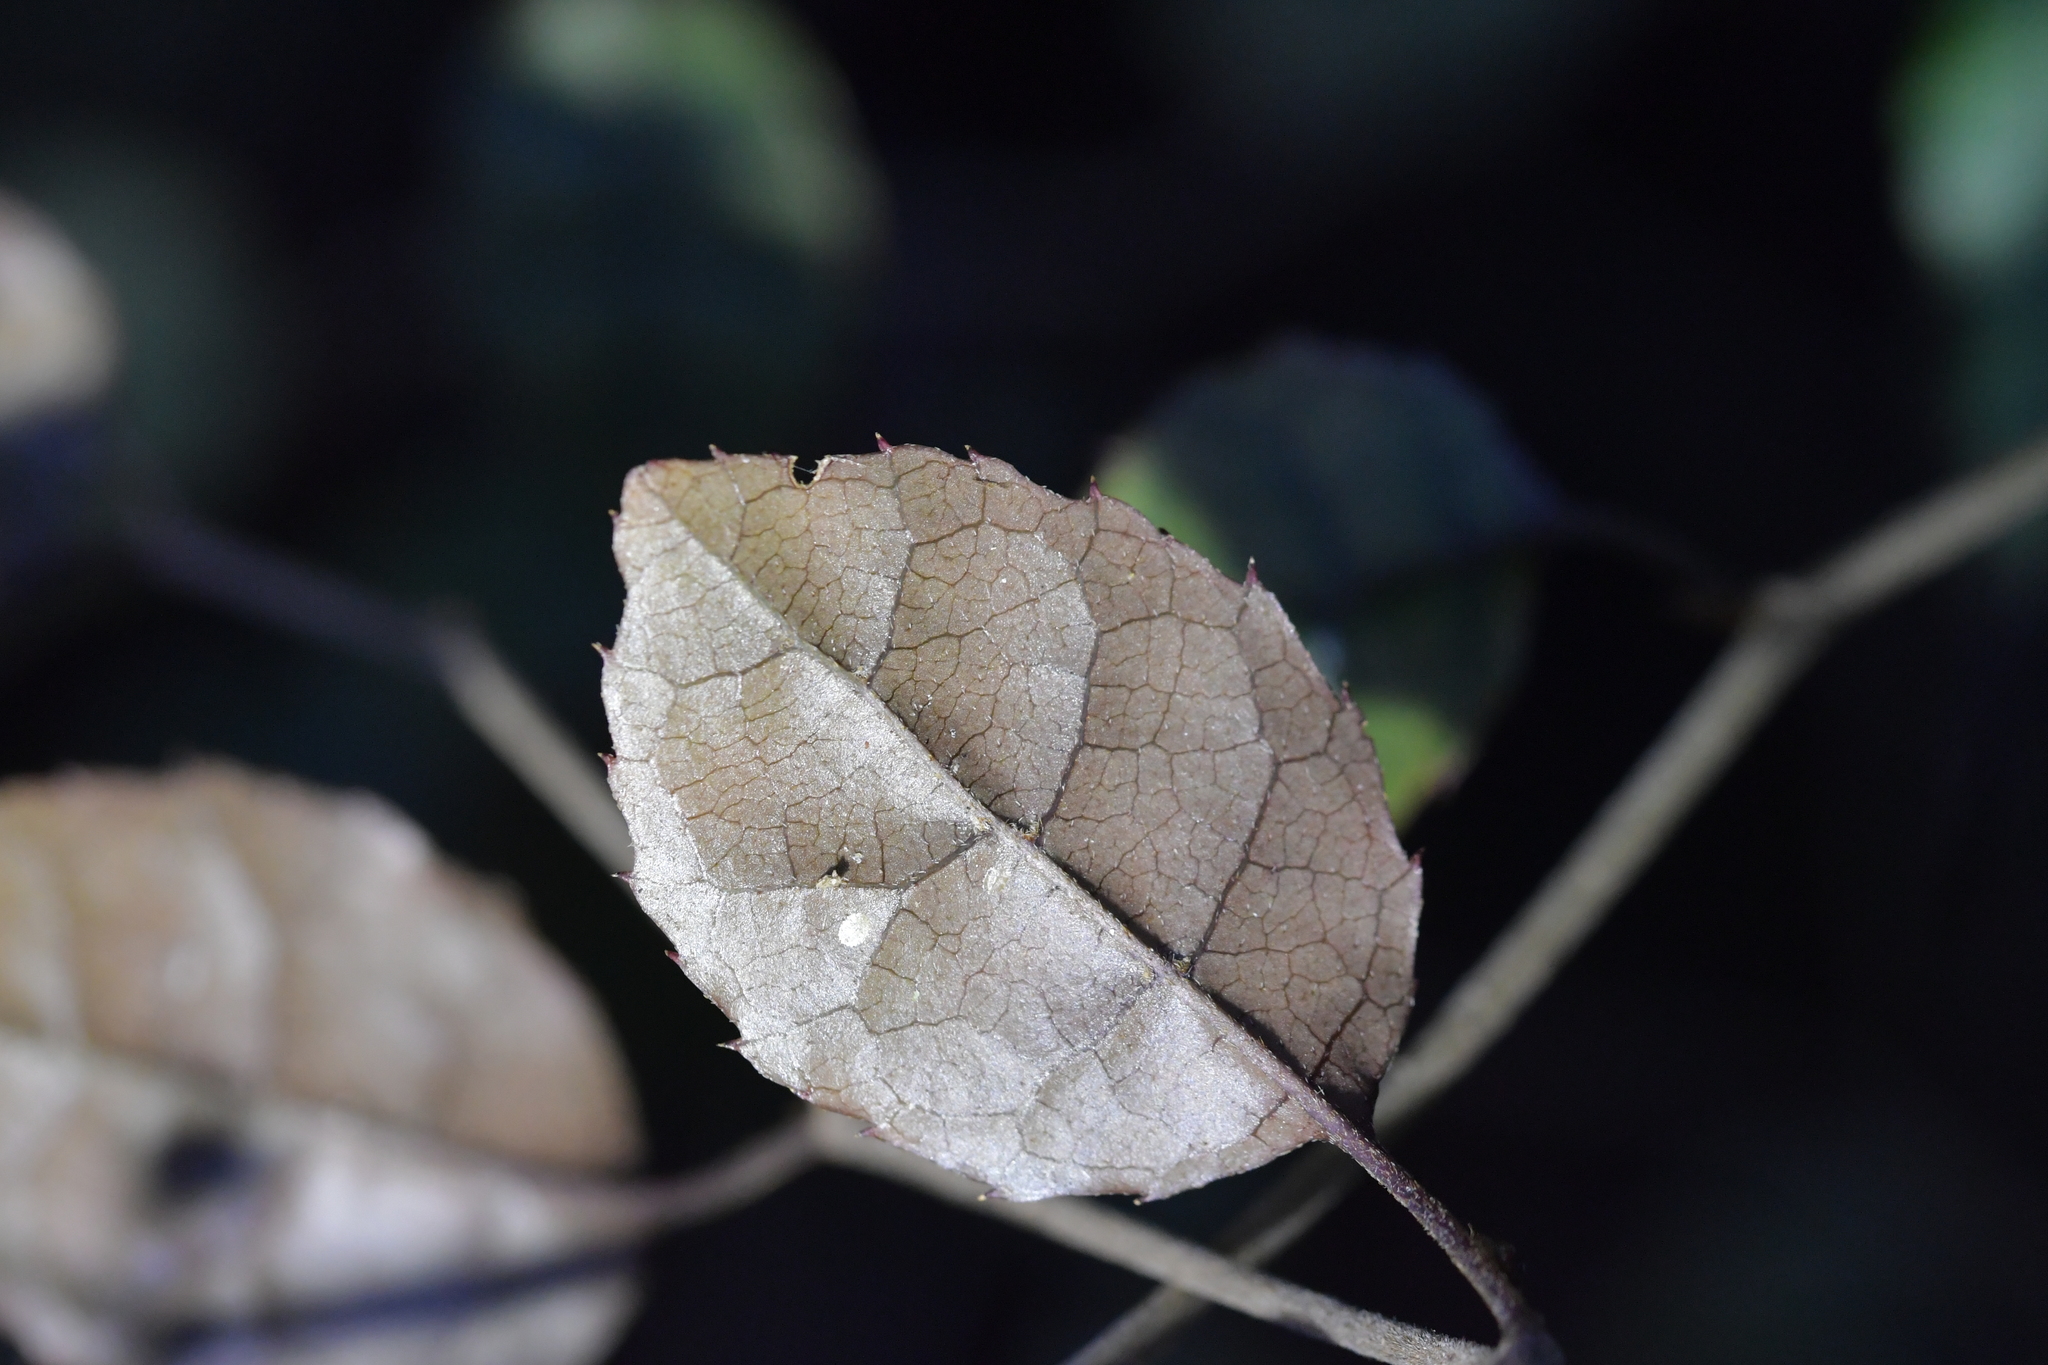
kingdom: Plantae
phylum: Tracheophyta
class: Magnoliopsida
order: Asterales
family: Rousseaceae
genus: Carpodetus
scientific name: Carpodetus serratus
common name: White mapau
